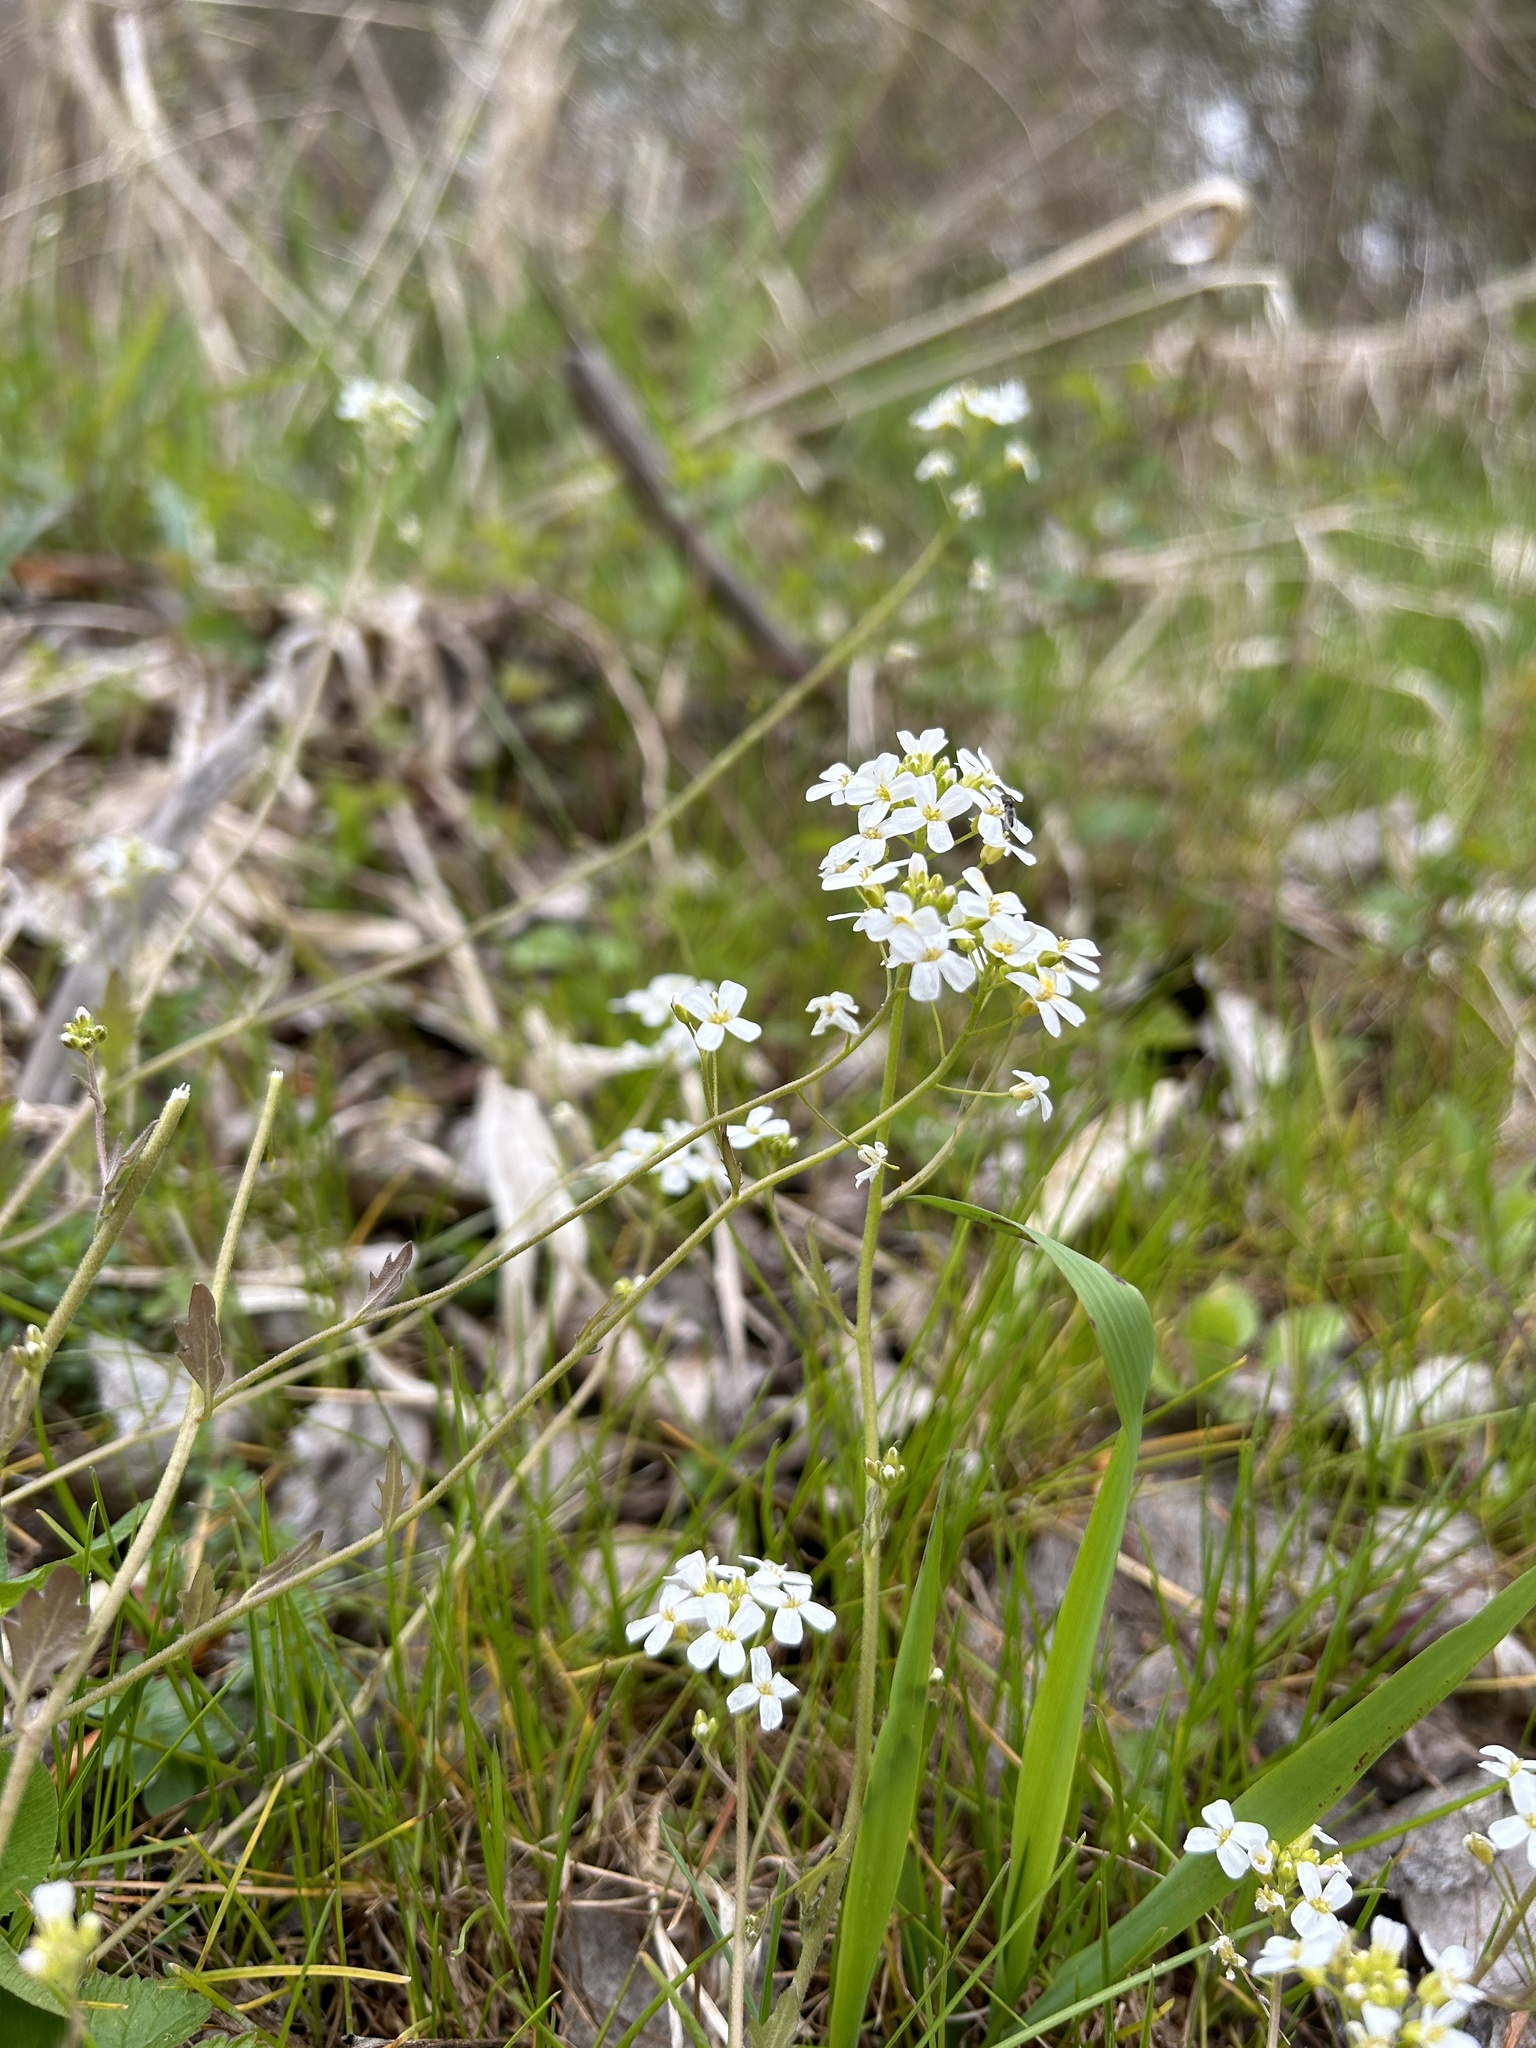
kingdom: Plantae
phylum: Tracheophyta
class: Magnoliopsida
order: Brassicales
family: Brassicaceae
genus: Arabidopsis
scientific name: Arabidopsis halleri
